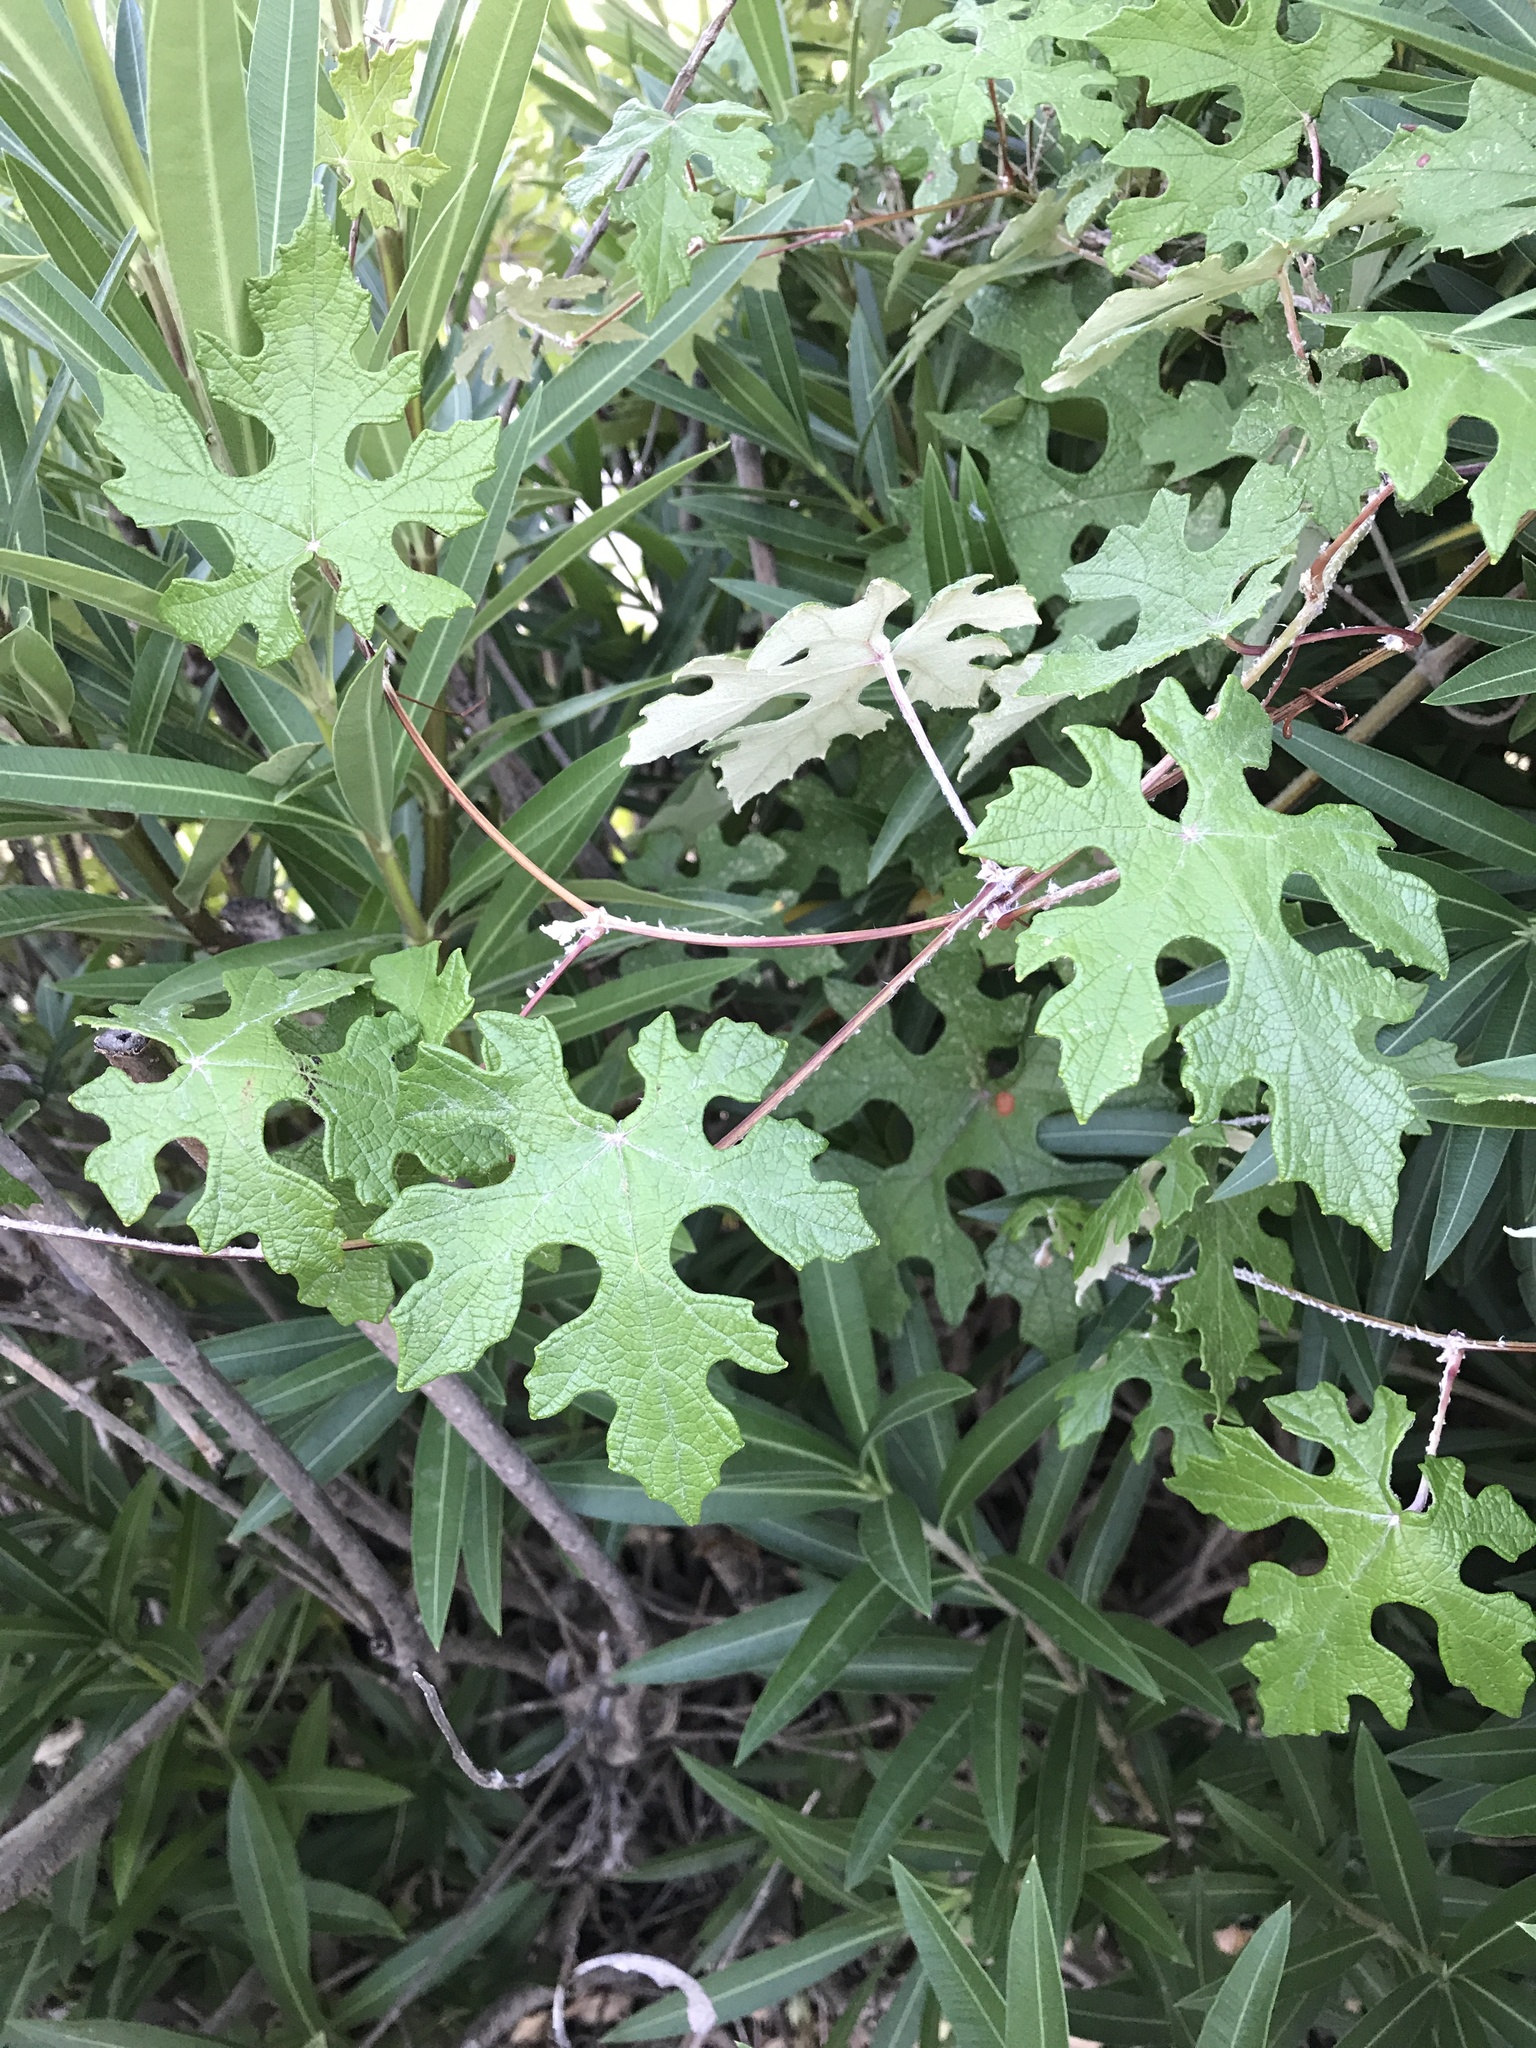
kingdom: Plantae
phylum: Tracheophyta
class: Magnoliopsida
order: Vitales
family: Vitaceae
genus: Vitis
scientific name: Vitis mustangensis
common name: Mustang grape
